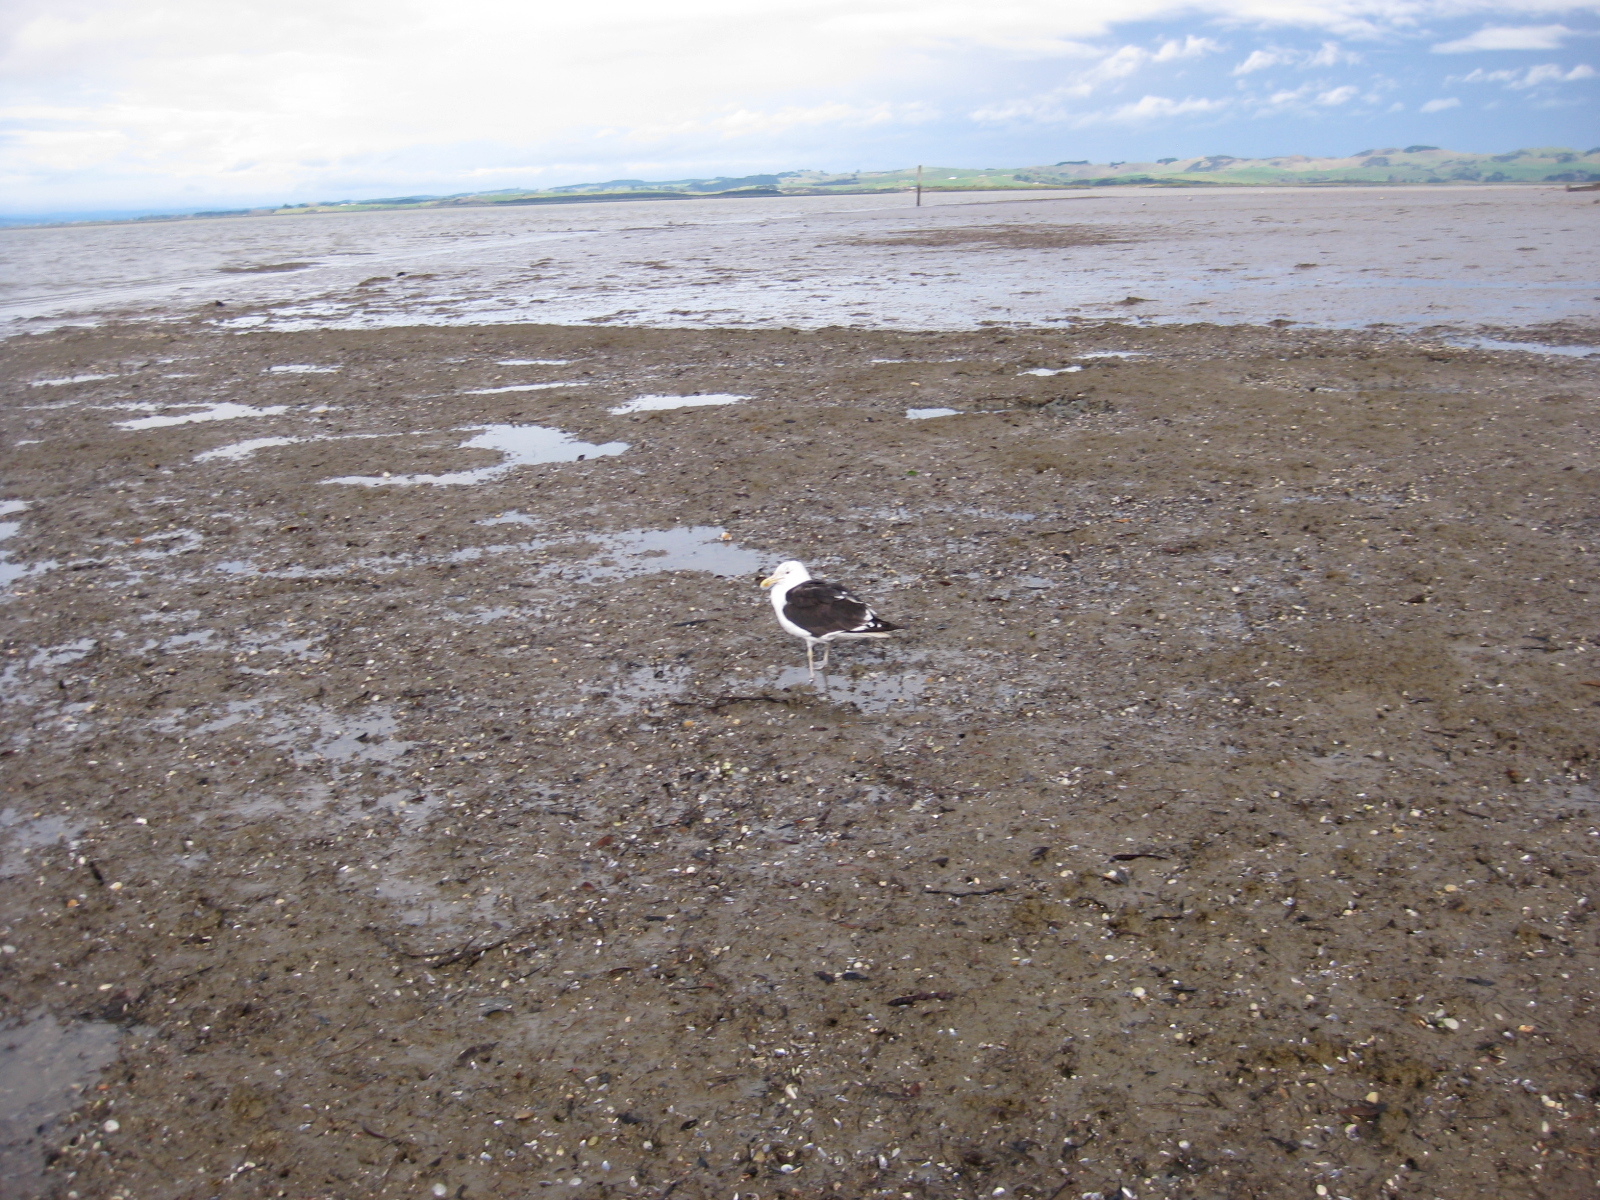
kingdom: Animalia
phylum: Chordata
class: Aves
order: Charadriiformes
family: Laridae
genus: Larus
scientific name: Larus dominicanus
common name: Kelp gull
